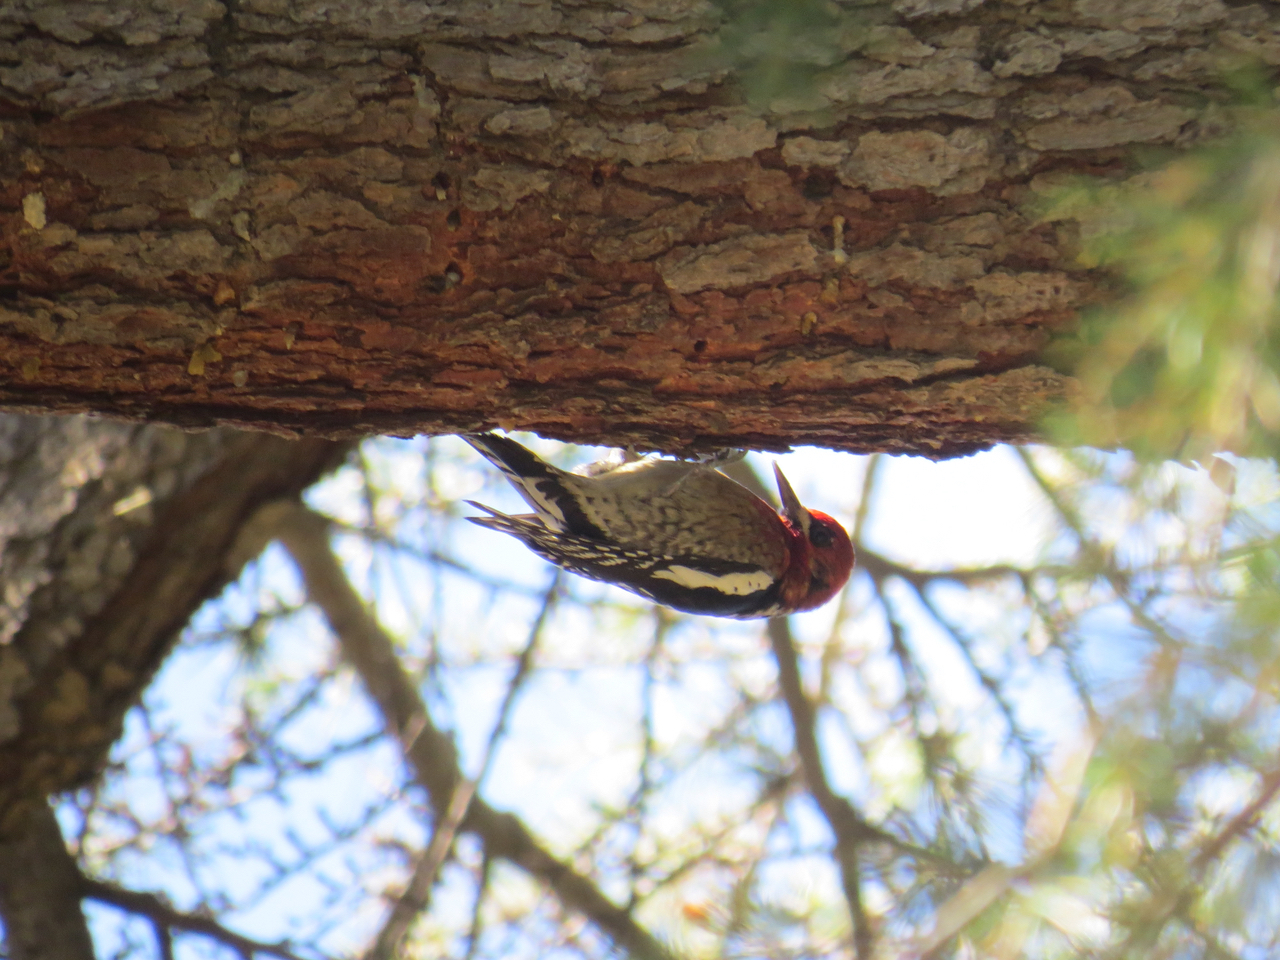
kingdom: Animalia
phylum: Chordata
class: Aves
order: Piciformes
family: Picidae
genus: Sphyrapicus
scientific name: Sphyrapicus ruber
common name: Red-breasted sapsucker
